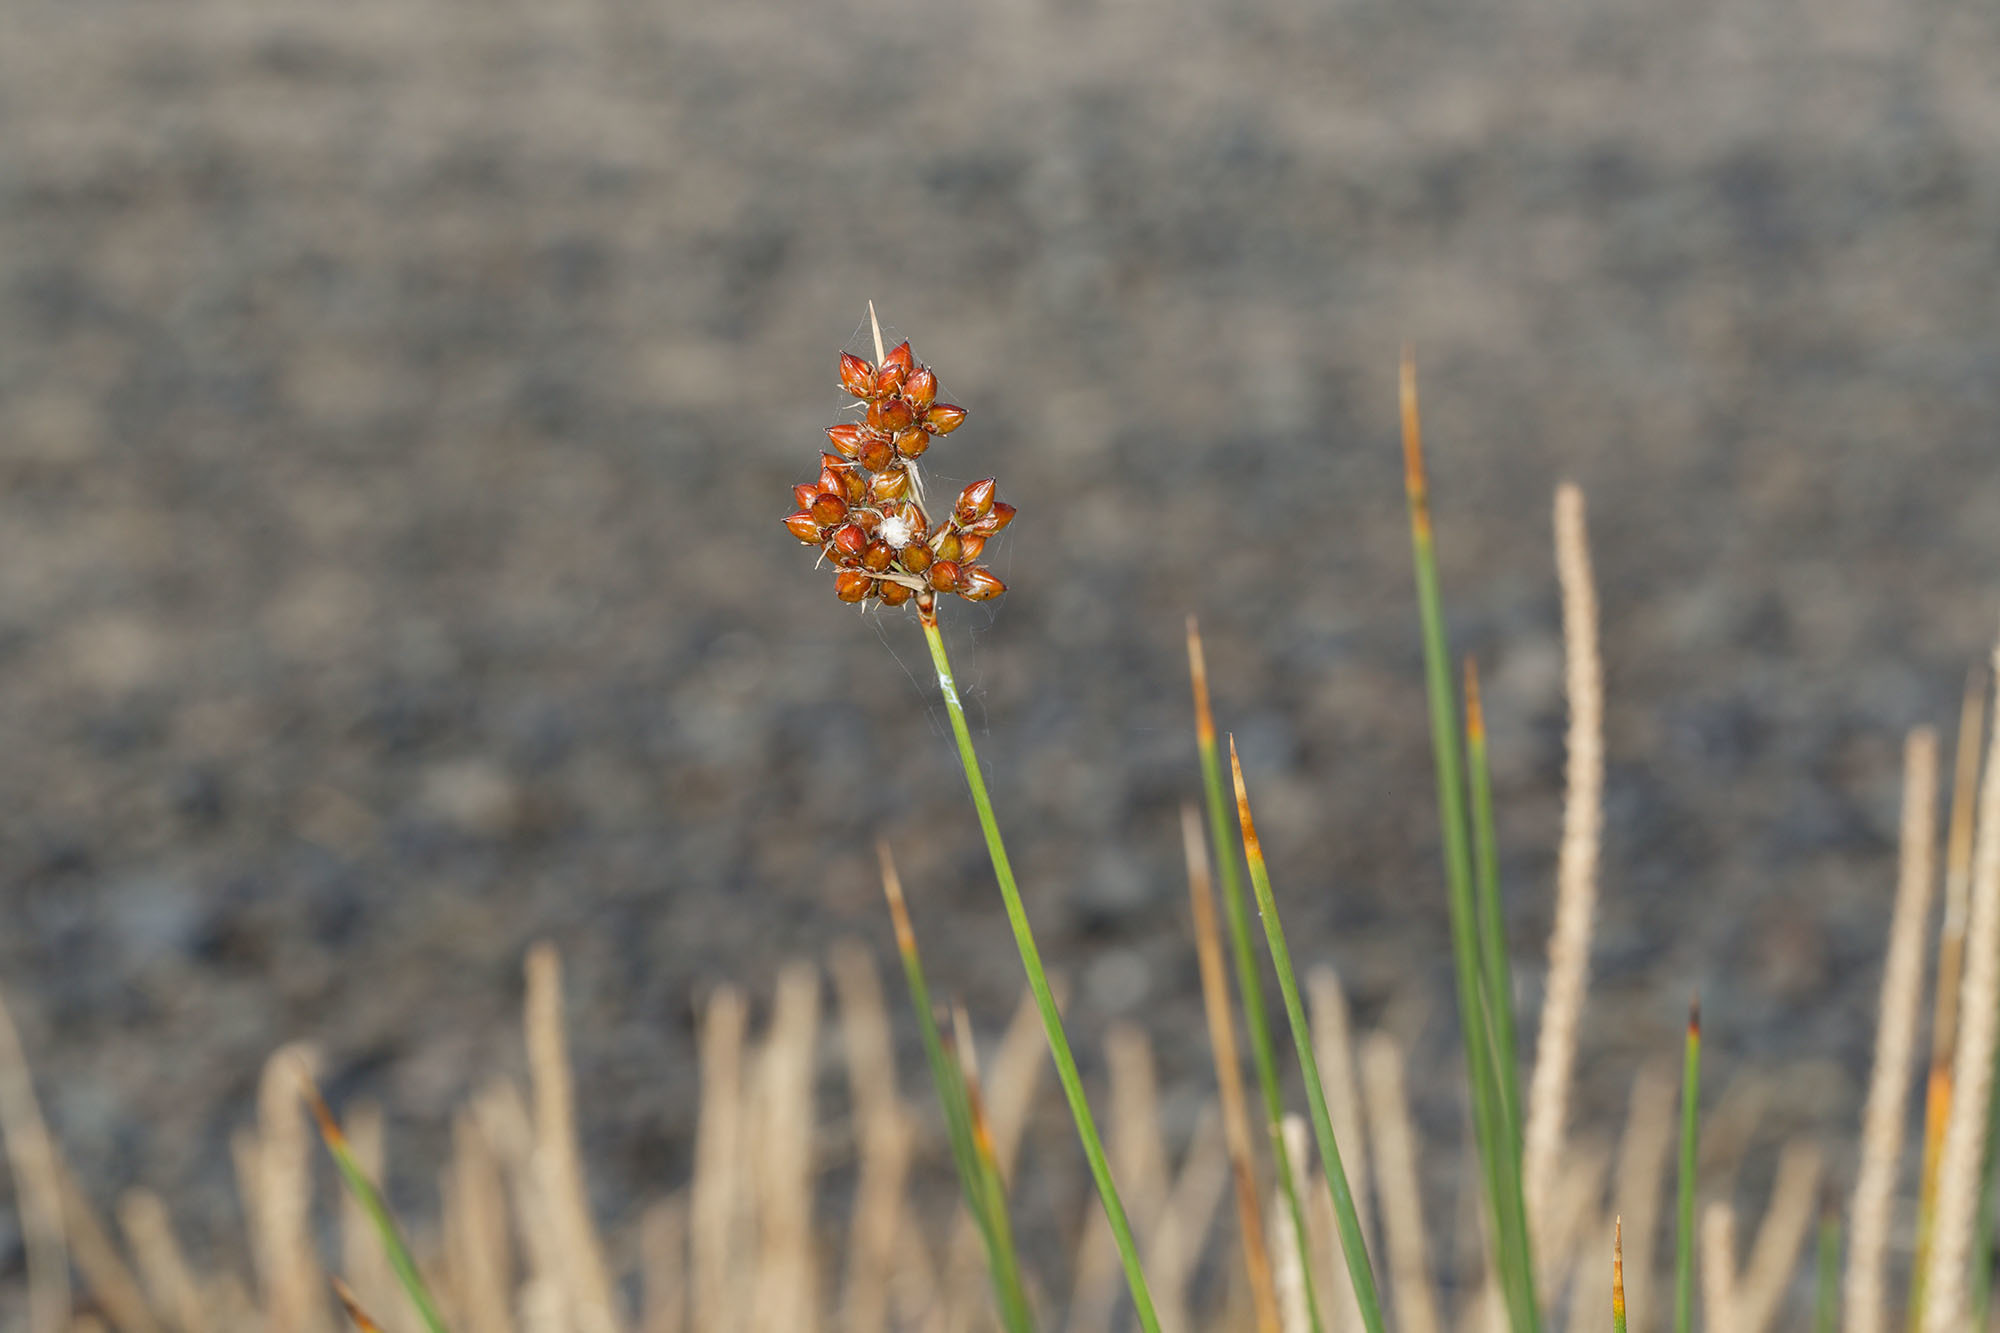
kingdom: Plantae
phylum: Tracheophyta
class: Liliopsida
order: Poales
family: Juncaceae
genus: Juncus
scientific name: Juncus acutus
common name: Sharp rush
